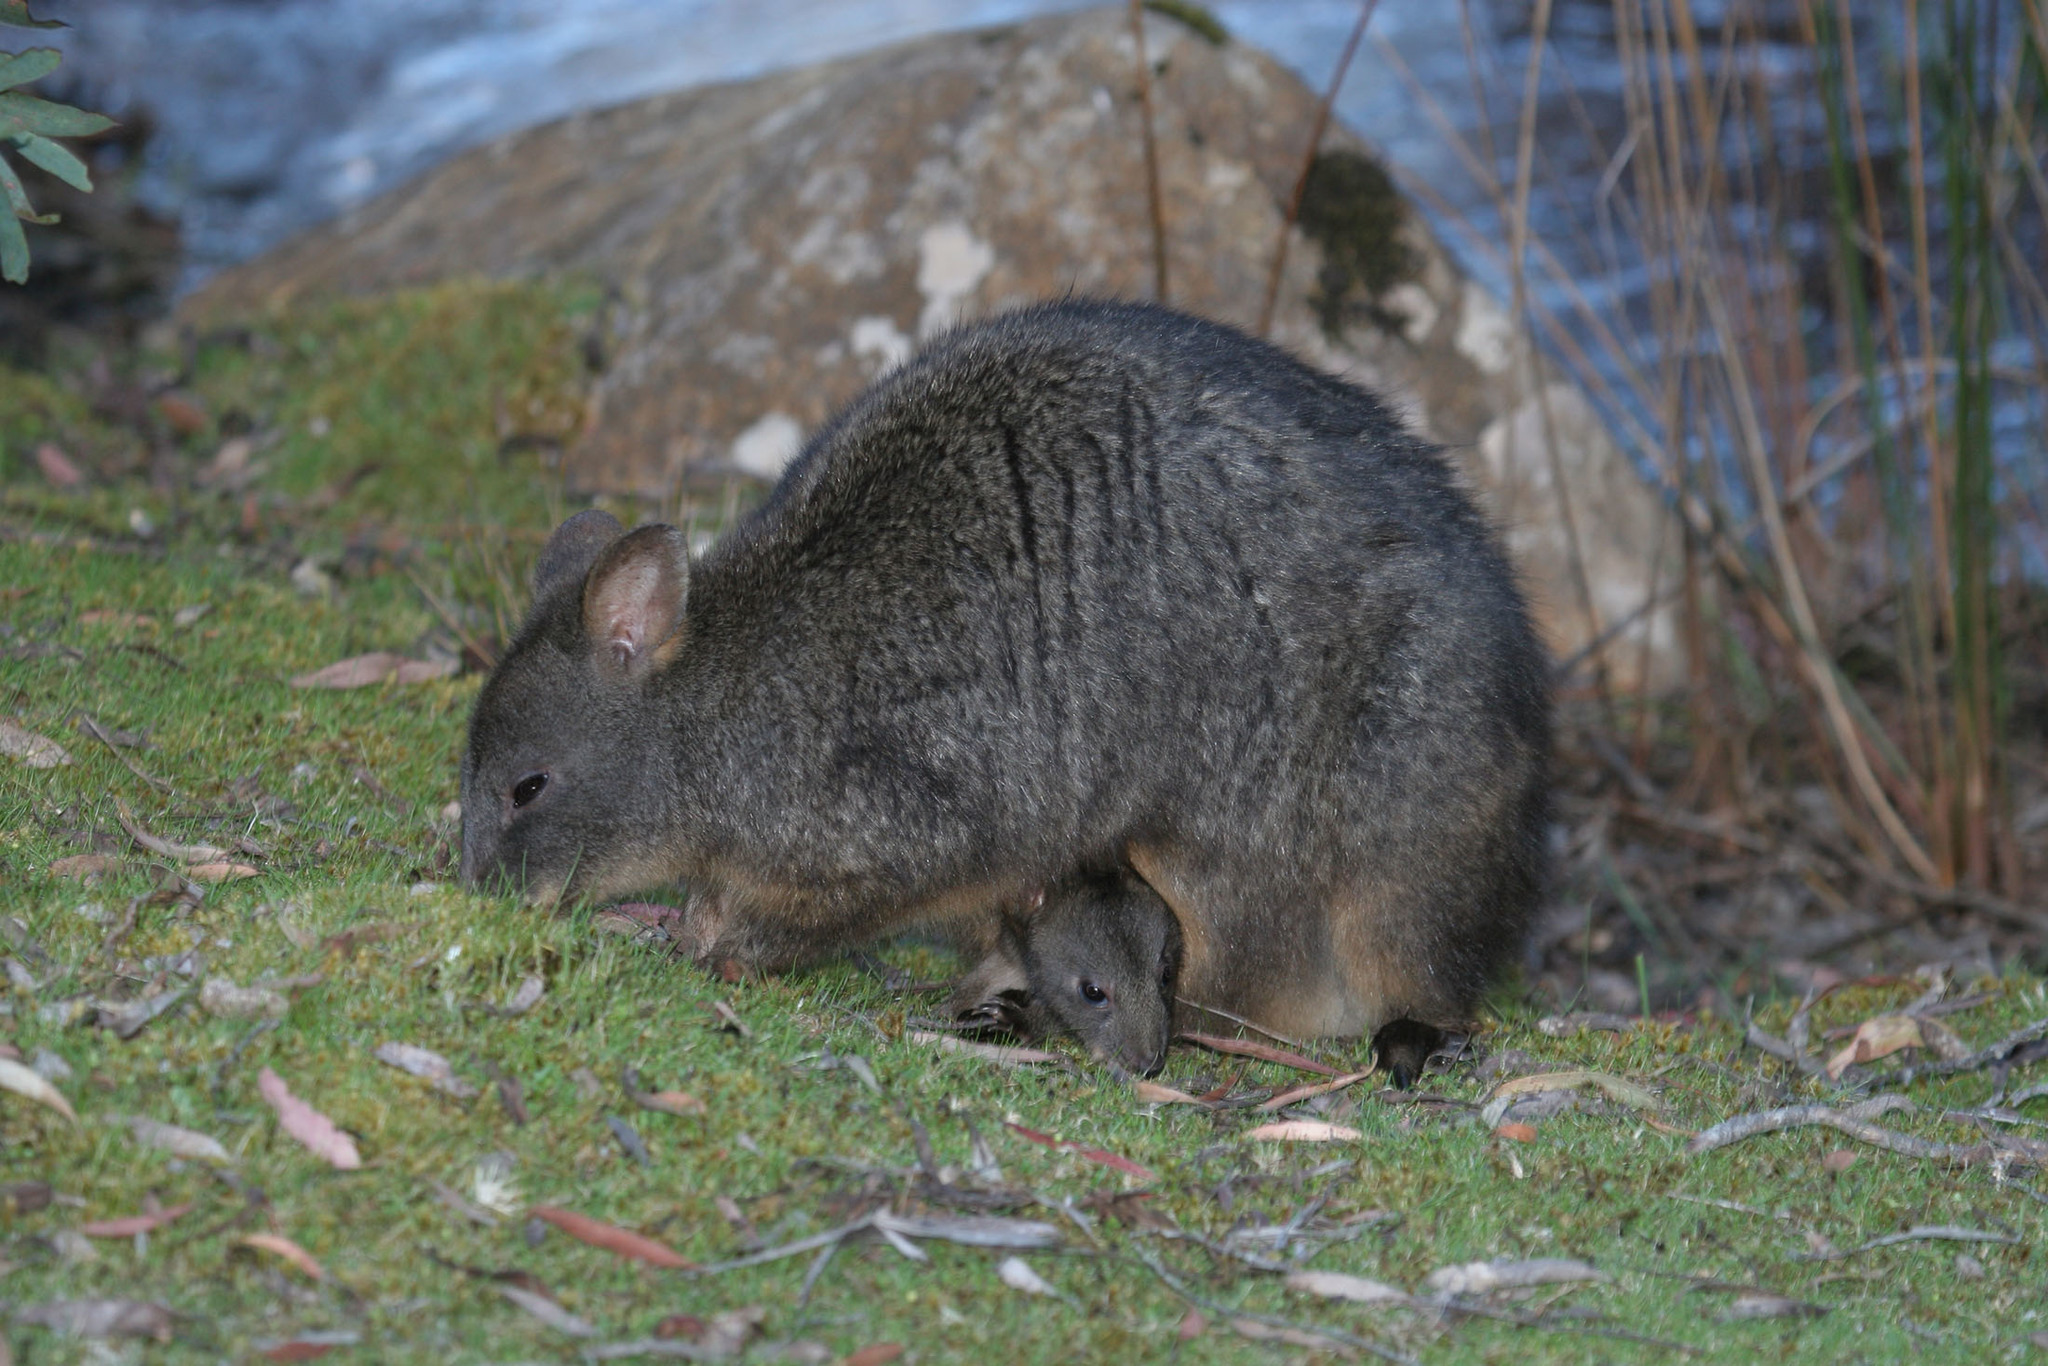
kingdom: Animalia
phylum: Chordata
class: Mammalia
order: Diprotodontia
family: Macropodidae
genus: Thylogale
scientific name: Thylogale billardierii
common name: Tasmanian pademelon
